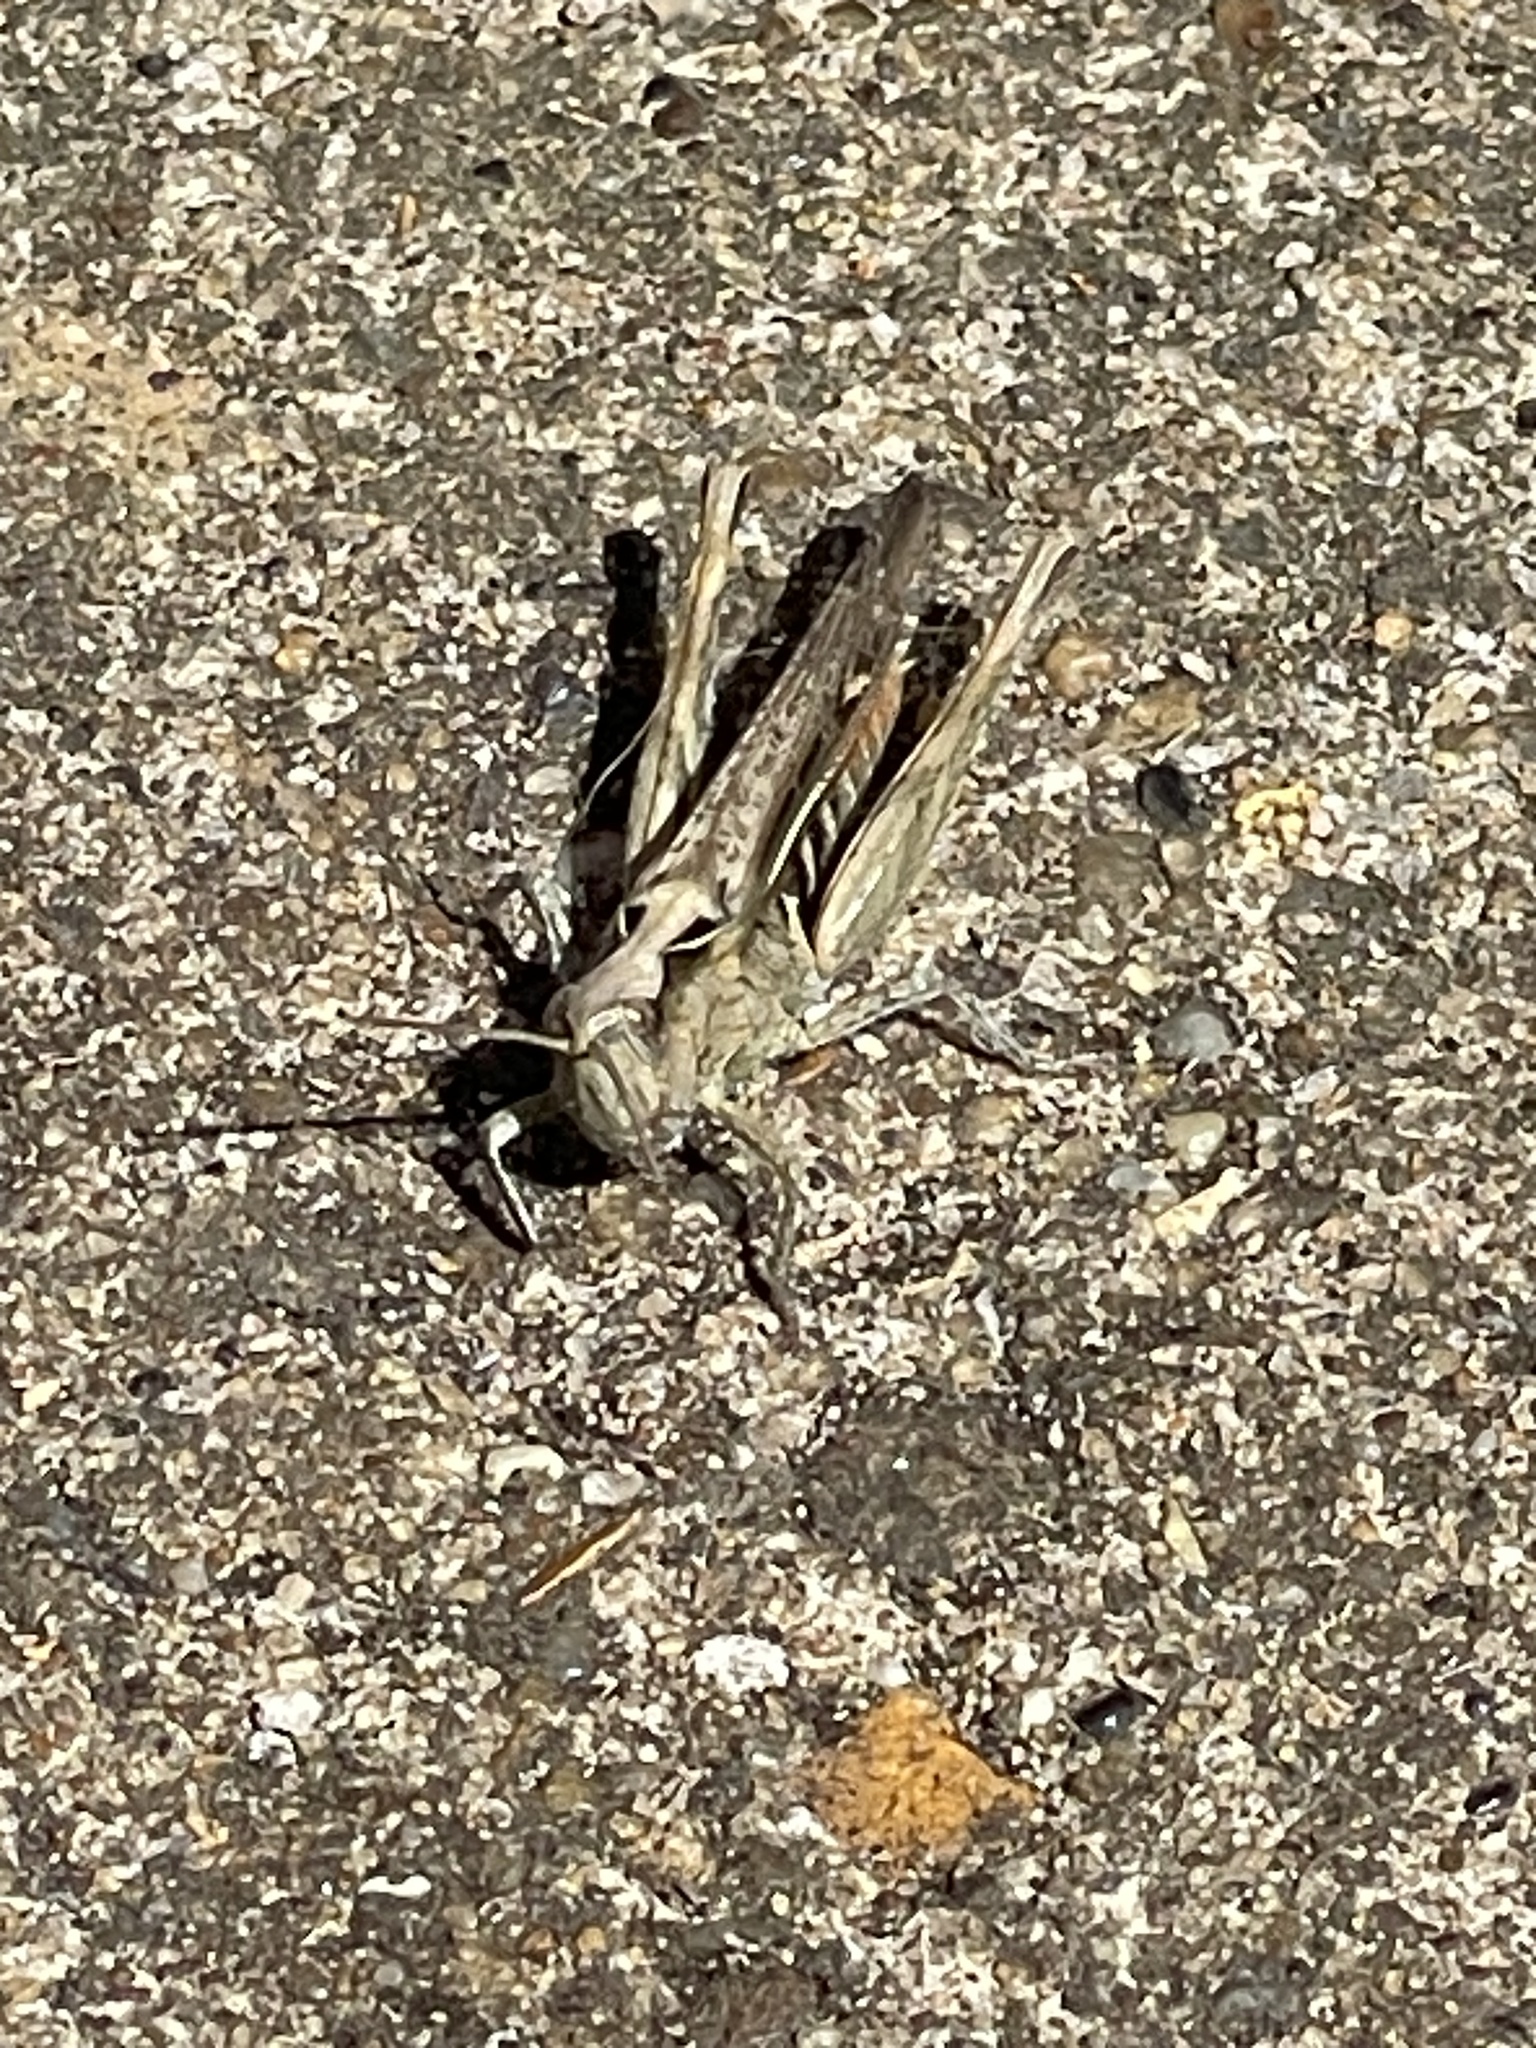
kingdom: Animalia
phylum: Arthropoda
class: Insecta
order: Orthoptera
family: Acrididae
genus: Chorthippus
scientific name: Chorthippus brunneus
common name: Field grasshopper
